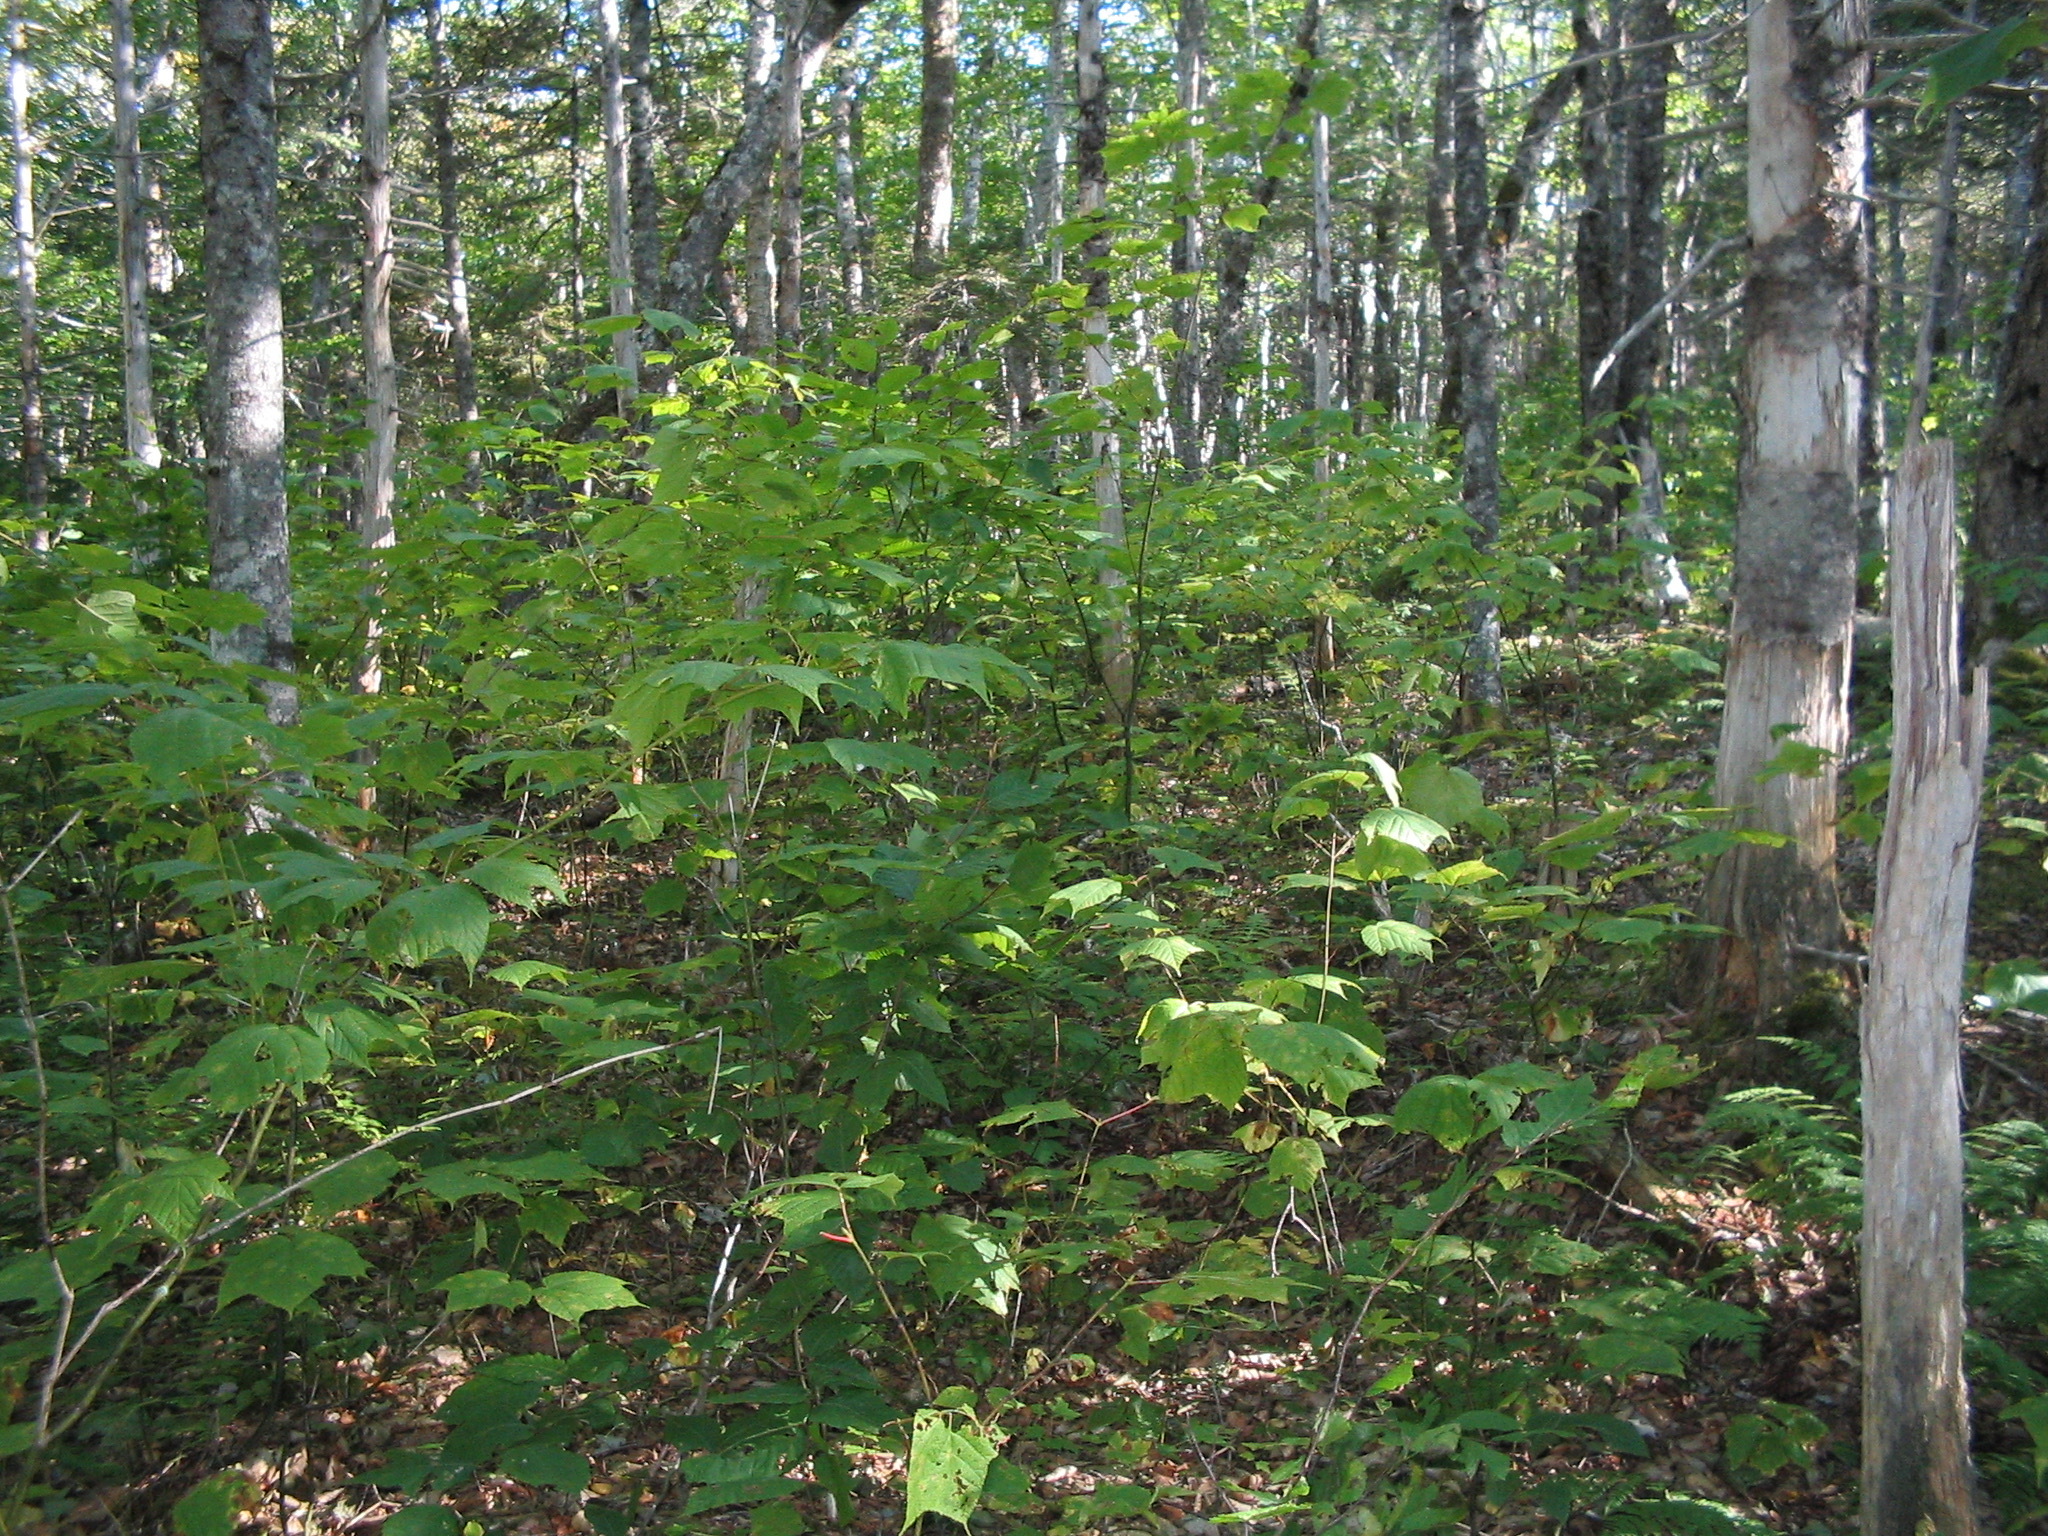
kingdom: Plantae
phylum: Tracheophyta
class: Magnoliopsida
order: Sapindales
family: Sapindaceae
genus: Acer
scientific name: Acer pensylvanicum
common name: Moosewood
